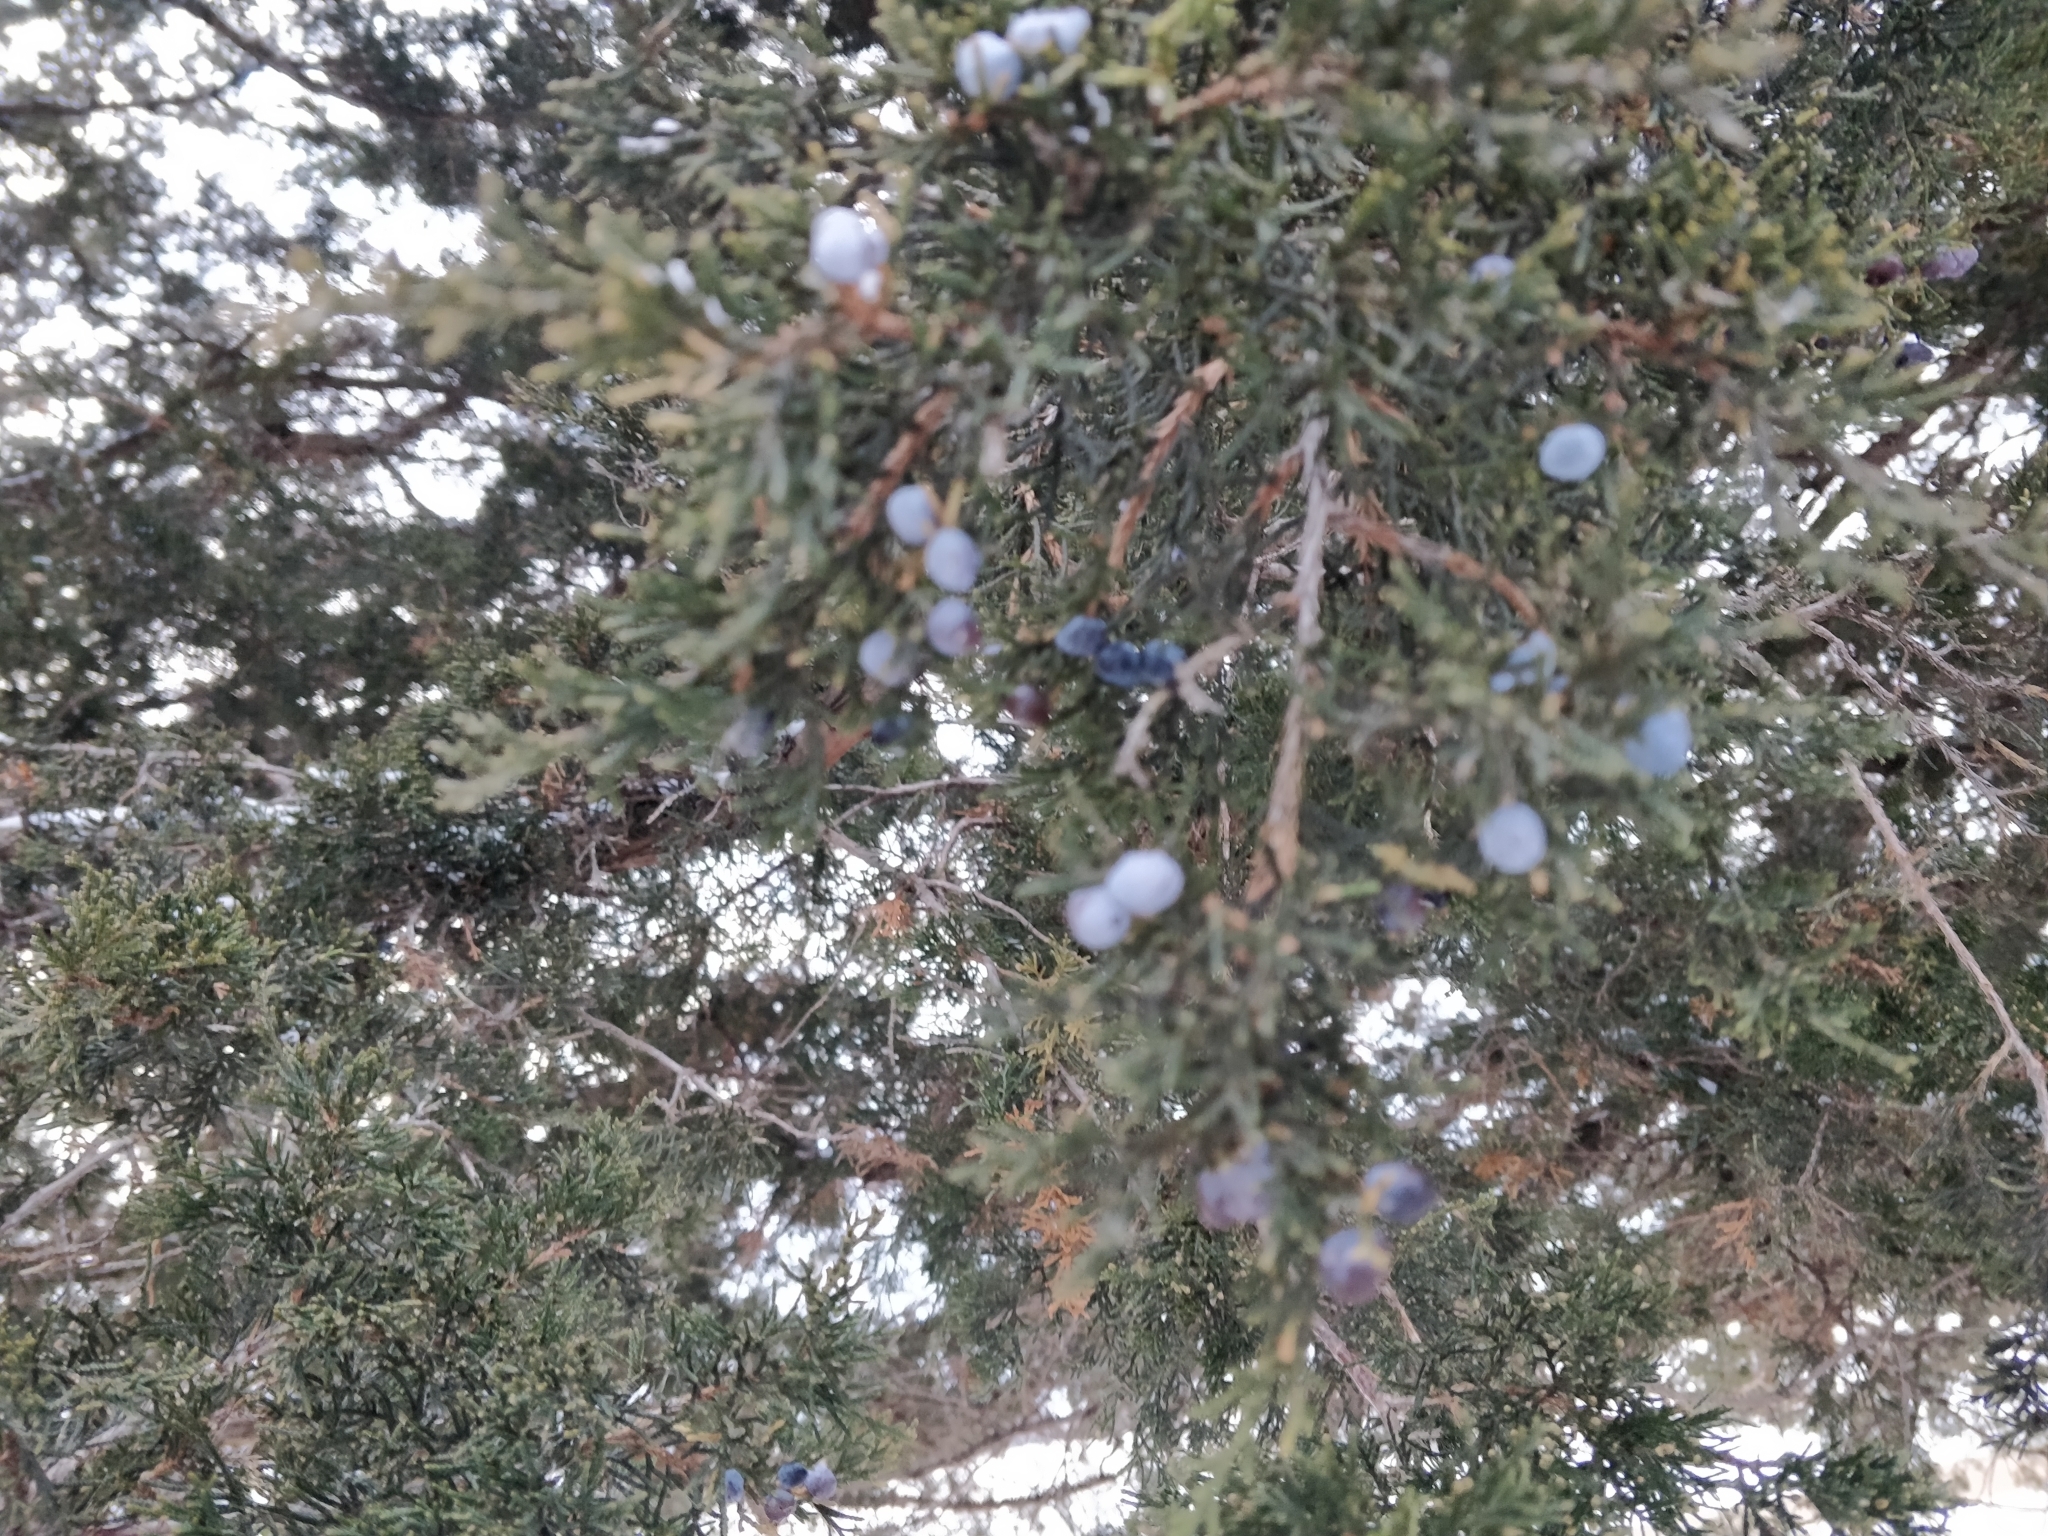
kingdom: Plantae
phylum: Tracheophyta
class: Pinopsida
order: Pinales
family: Cupressaceae
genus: Juniperus
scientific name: Juniperus virginiana
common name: Red juniper
